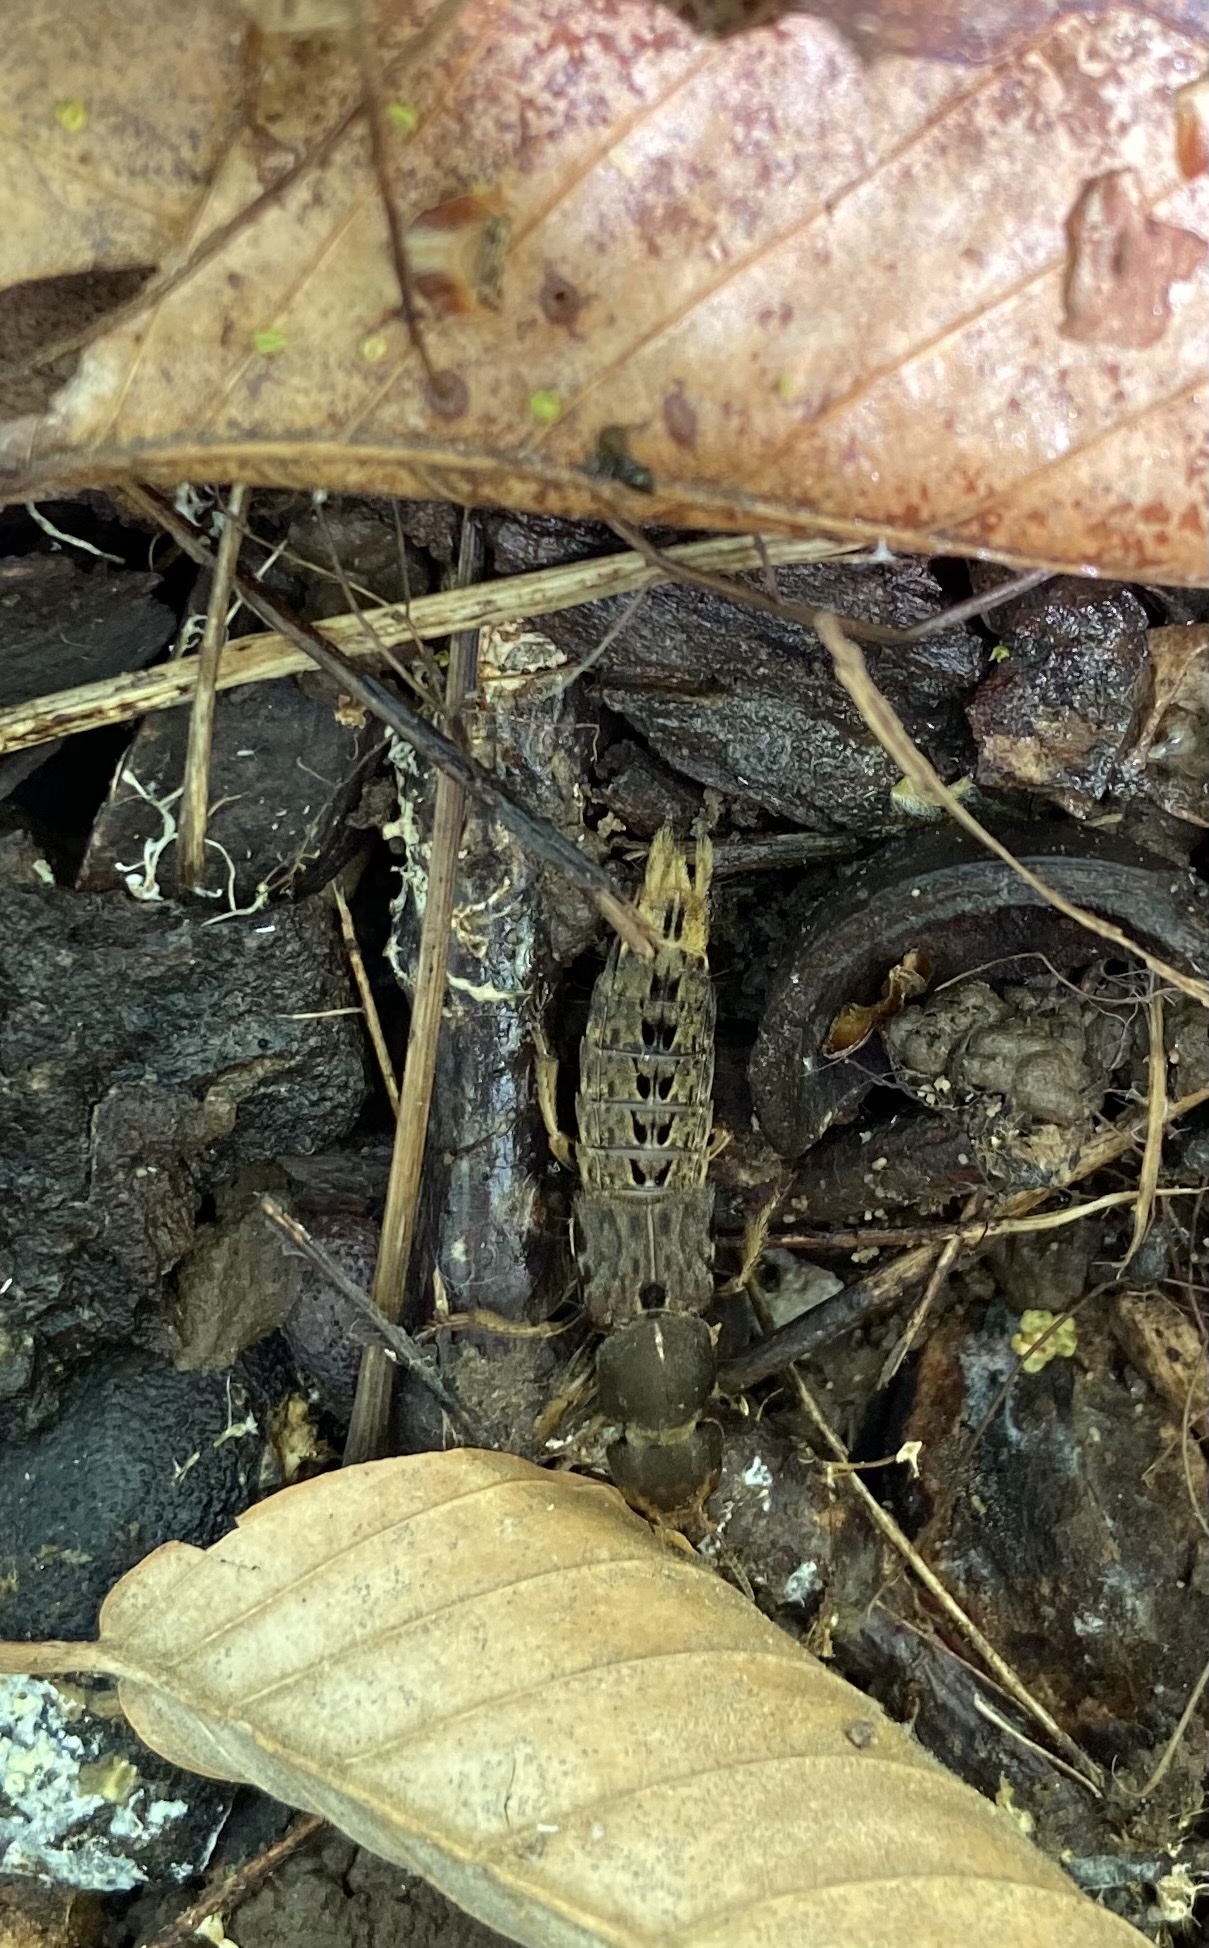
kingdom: Animalia
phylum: Arthropoda
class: Insecta
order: Coleoptera
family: Staphylinidae
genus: Platydracus
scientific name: Platydracus maculosus
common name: Brown rove beetle
